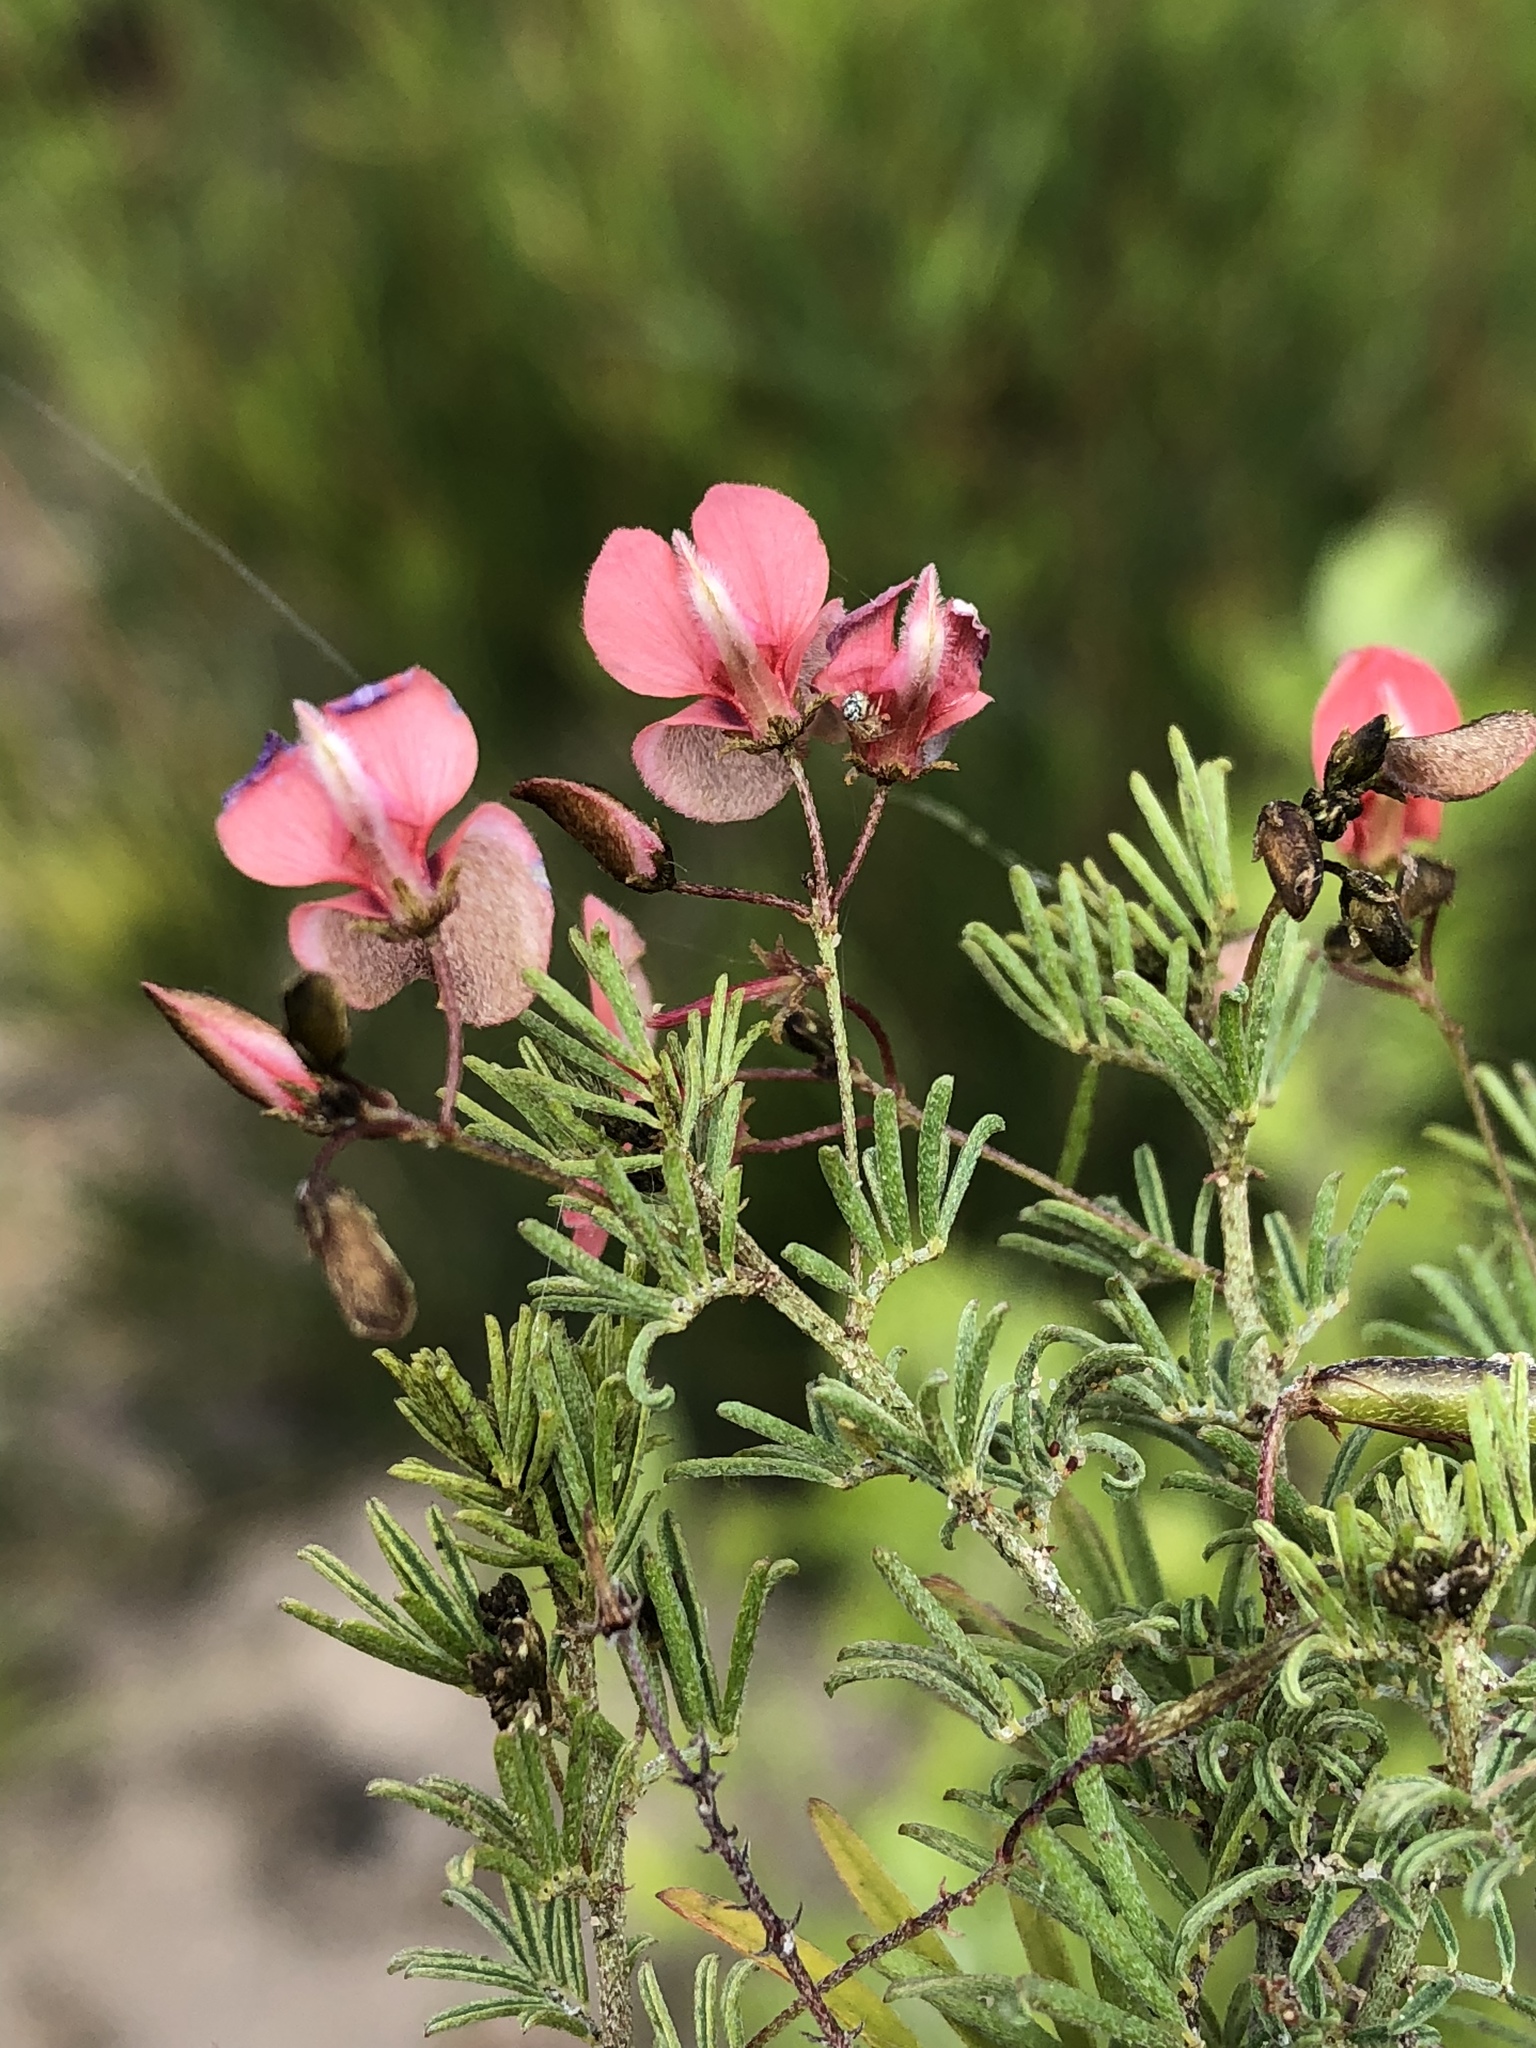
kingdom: Plantae
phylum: Tracheophyta
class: Magnoliopsida
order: Fabales
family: Fabaceae
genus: Indigofera
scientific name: Indigofera verrucosa
